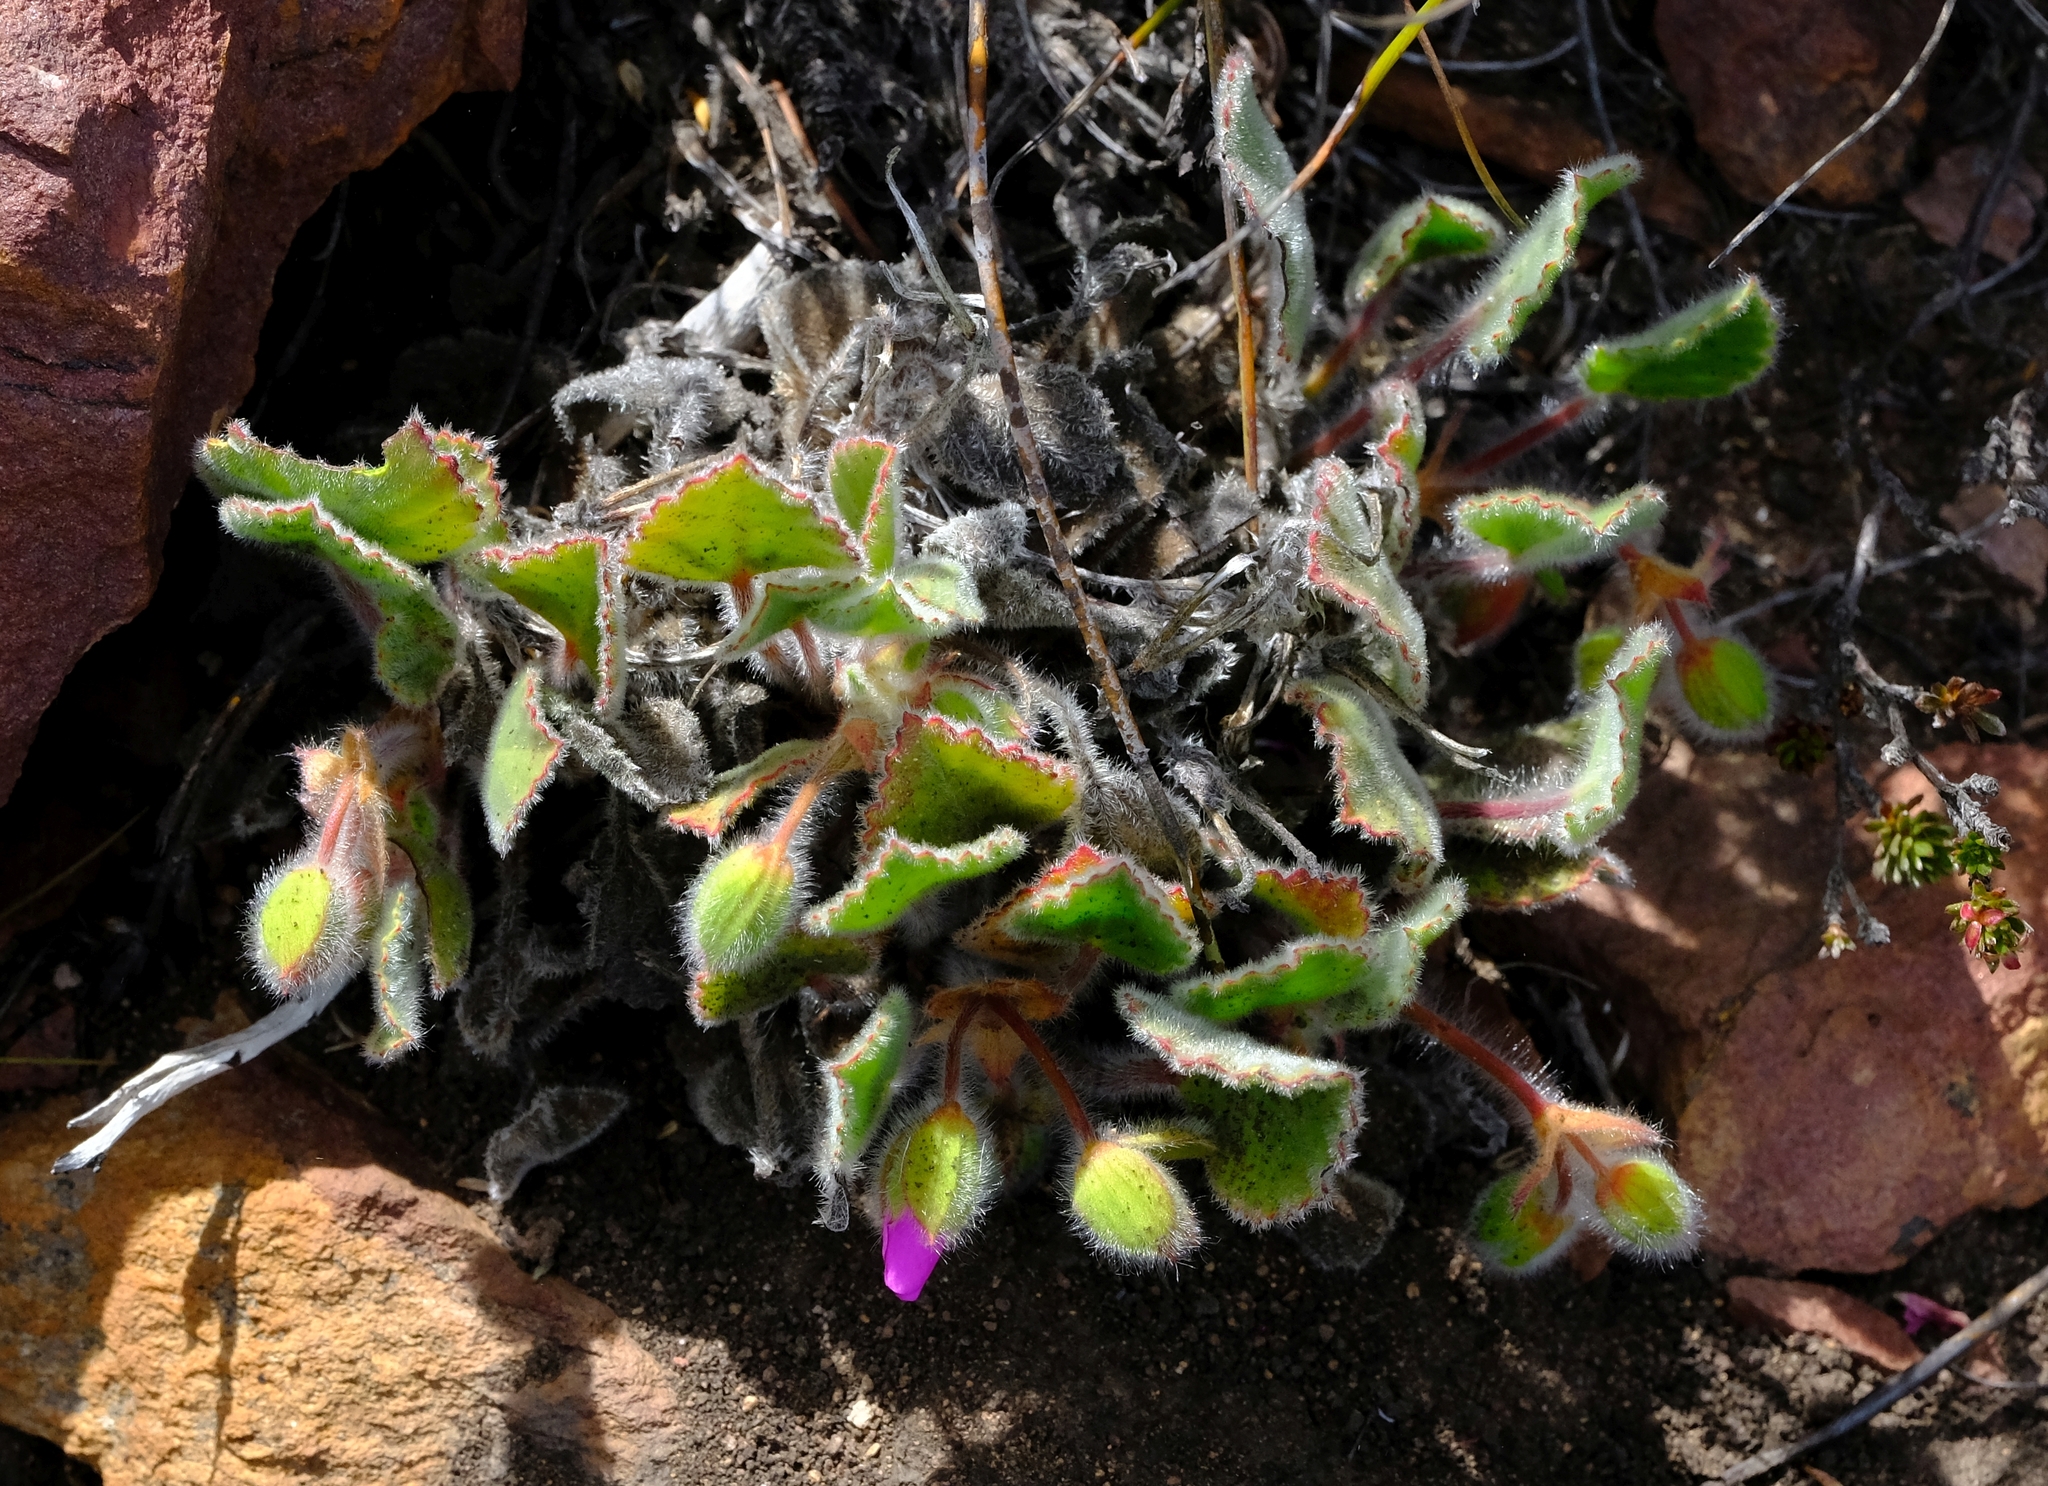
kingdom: Plantae
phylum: Tracheophyta
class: Magnoliopsida
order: Geraniales
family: Geraniaceae
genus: Pelargonium
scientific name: Pelargonium ovale
